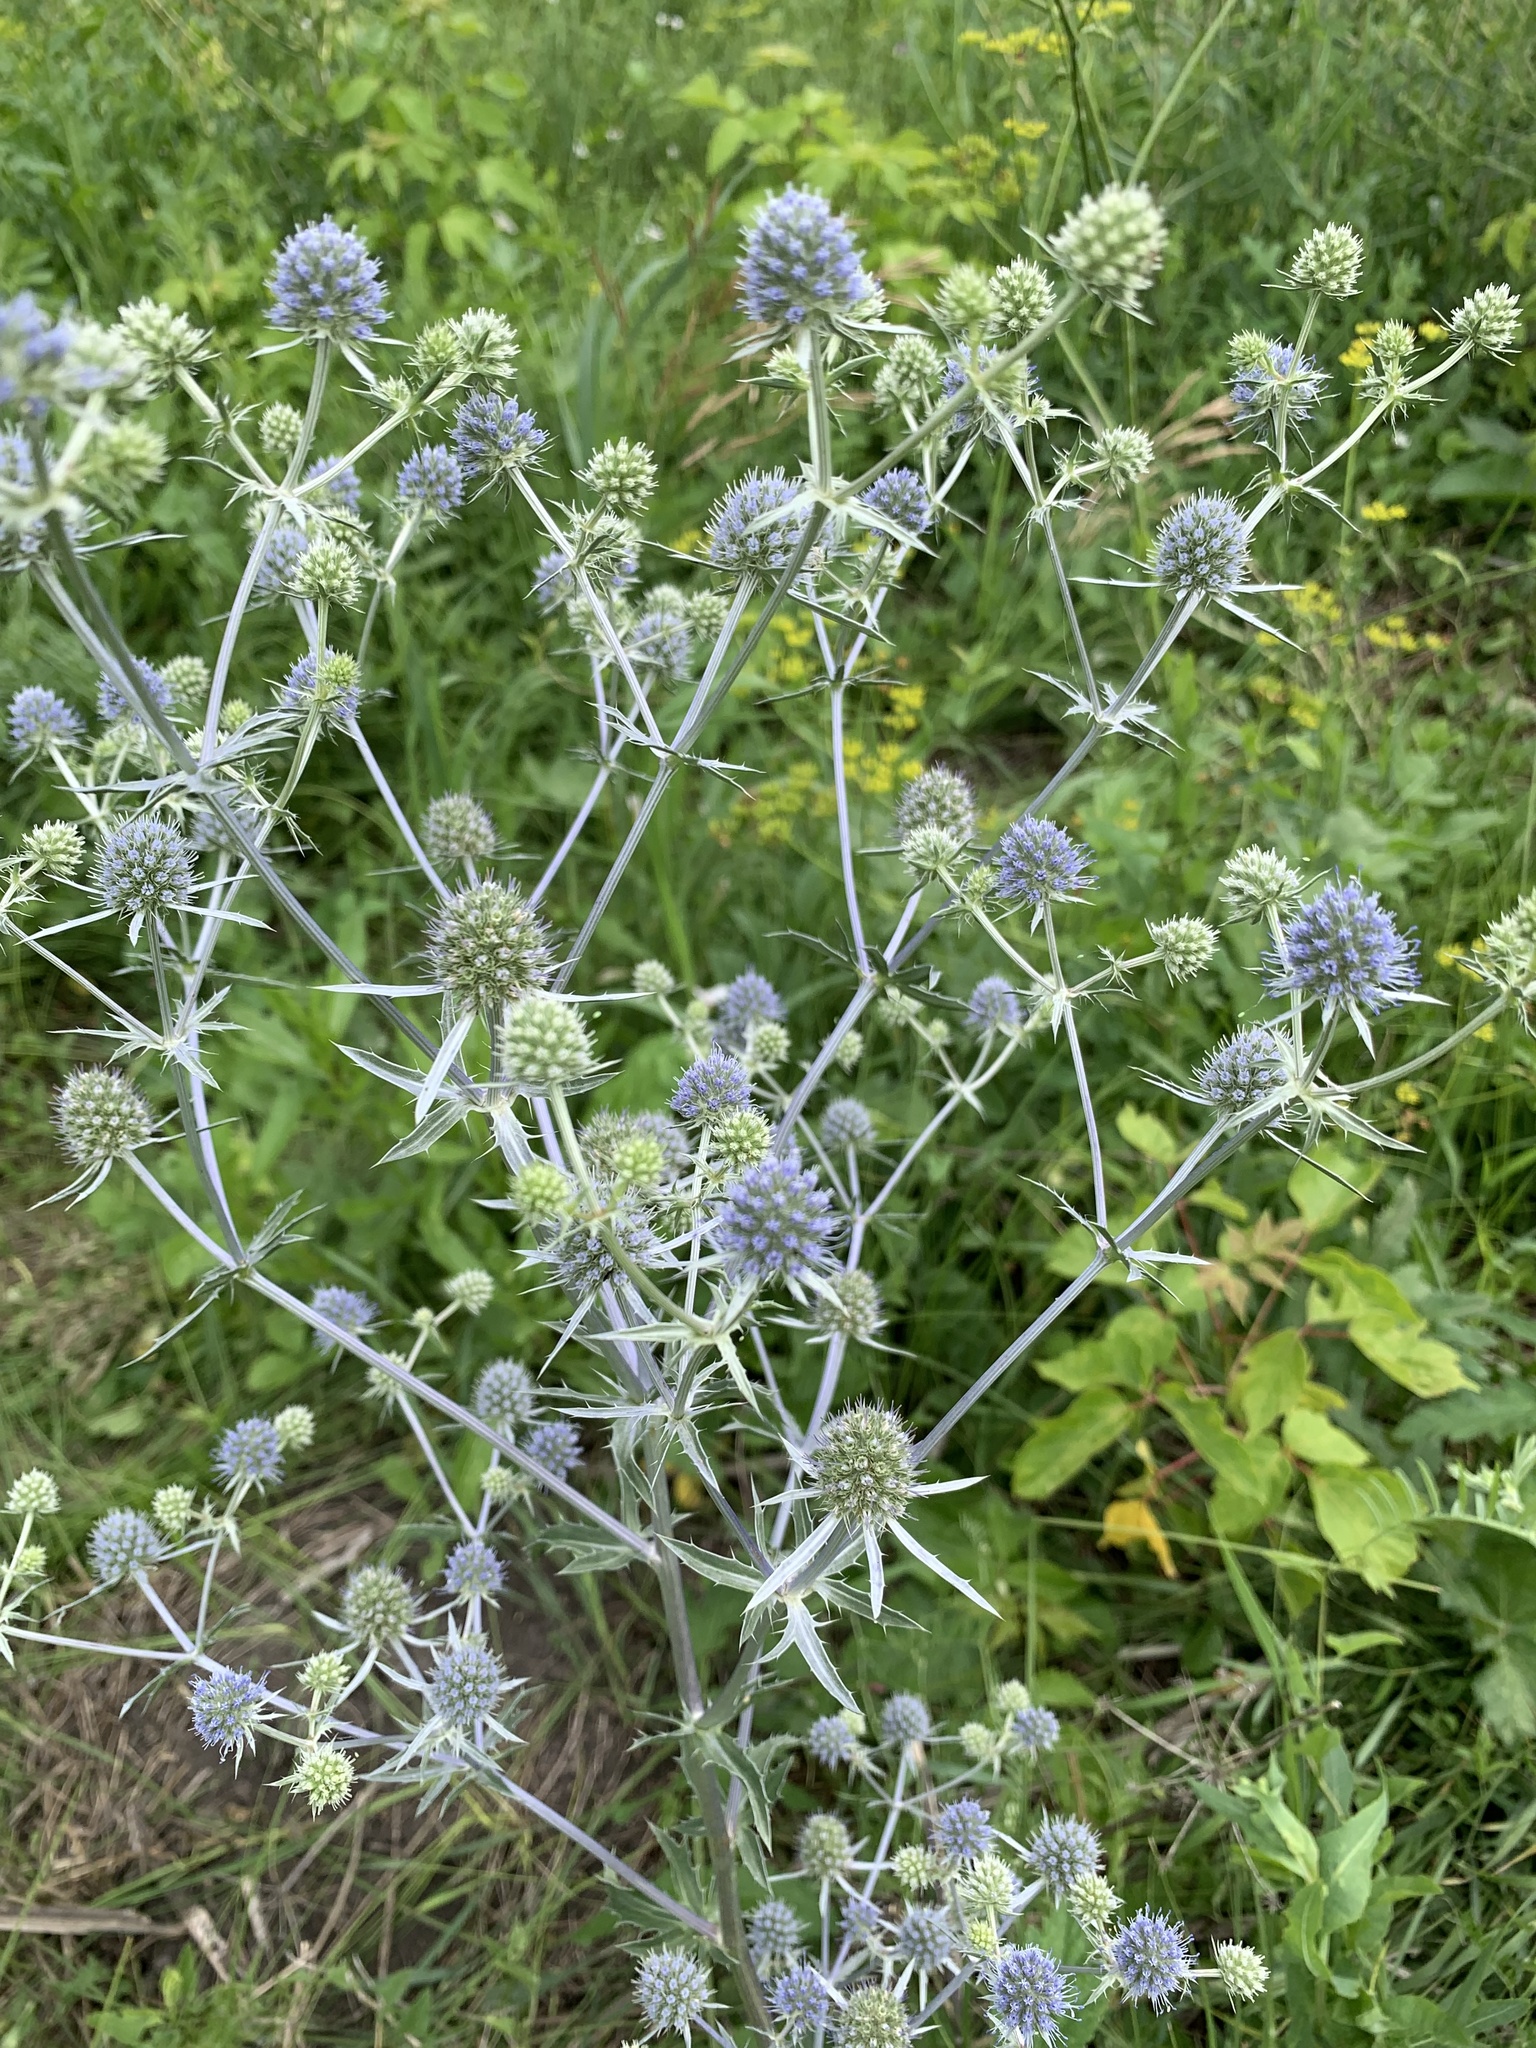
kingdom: Plantae
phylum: Tracheophyta
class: Magnoliopsida
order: Apiales
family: Apiaceae
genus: Eryngium
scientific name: Eryngium planum
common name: Blue eryngo
